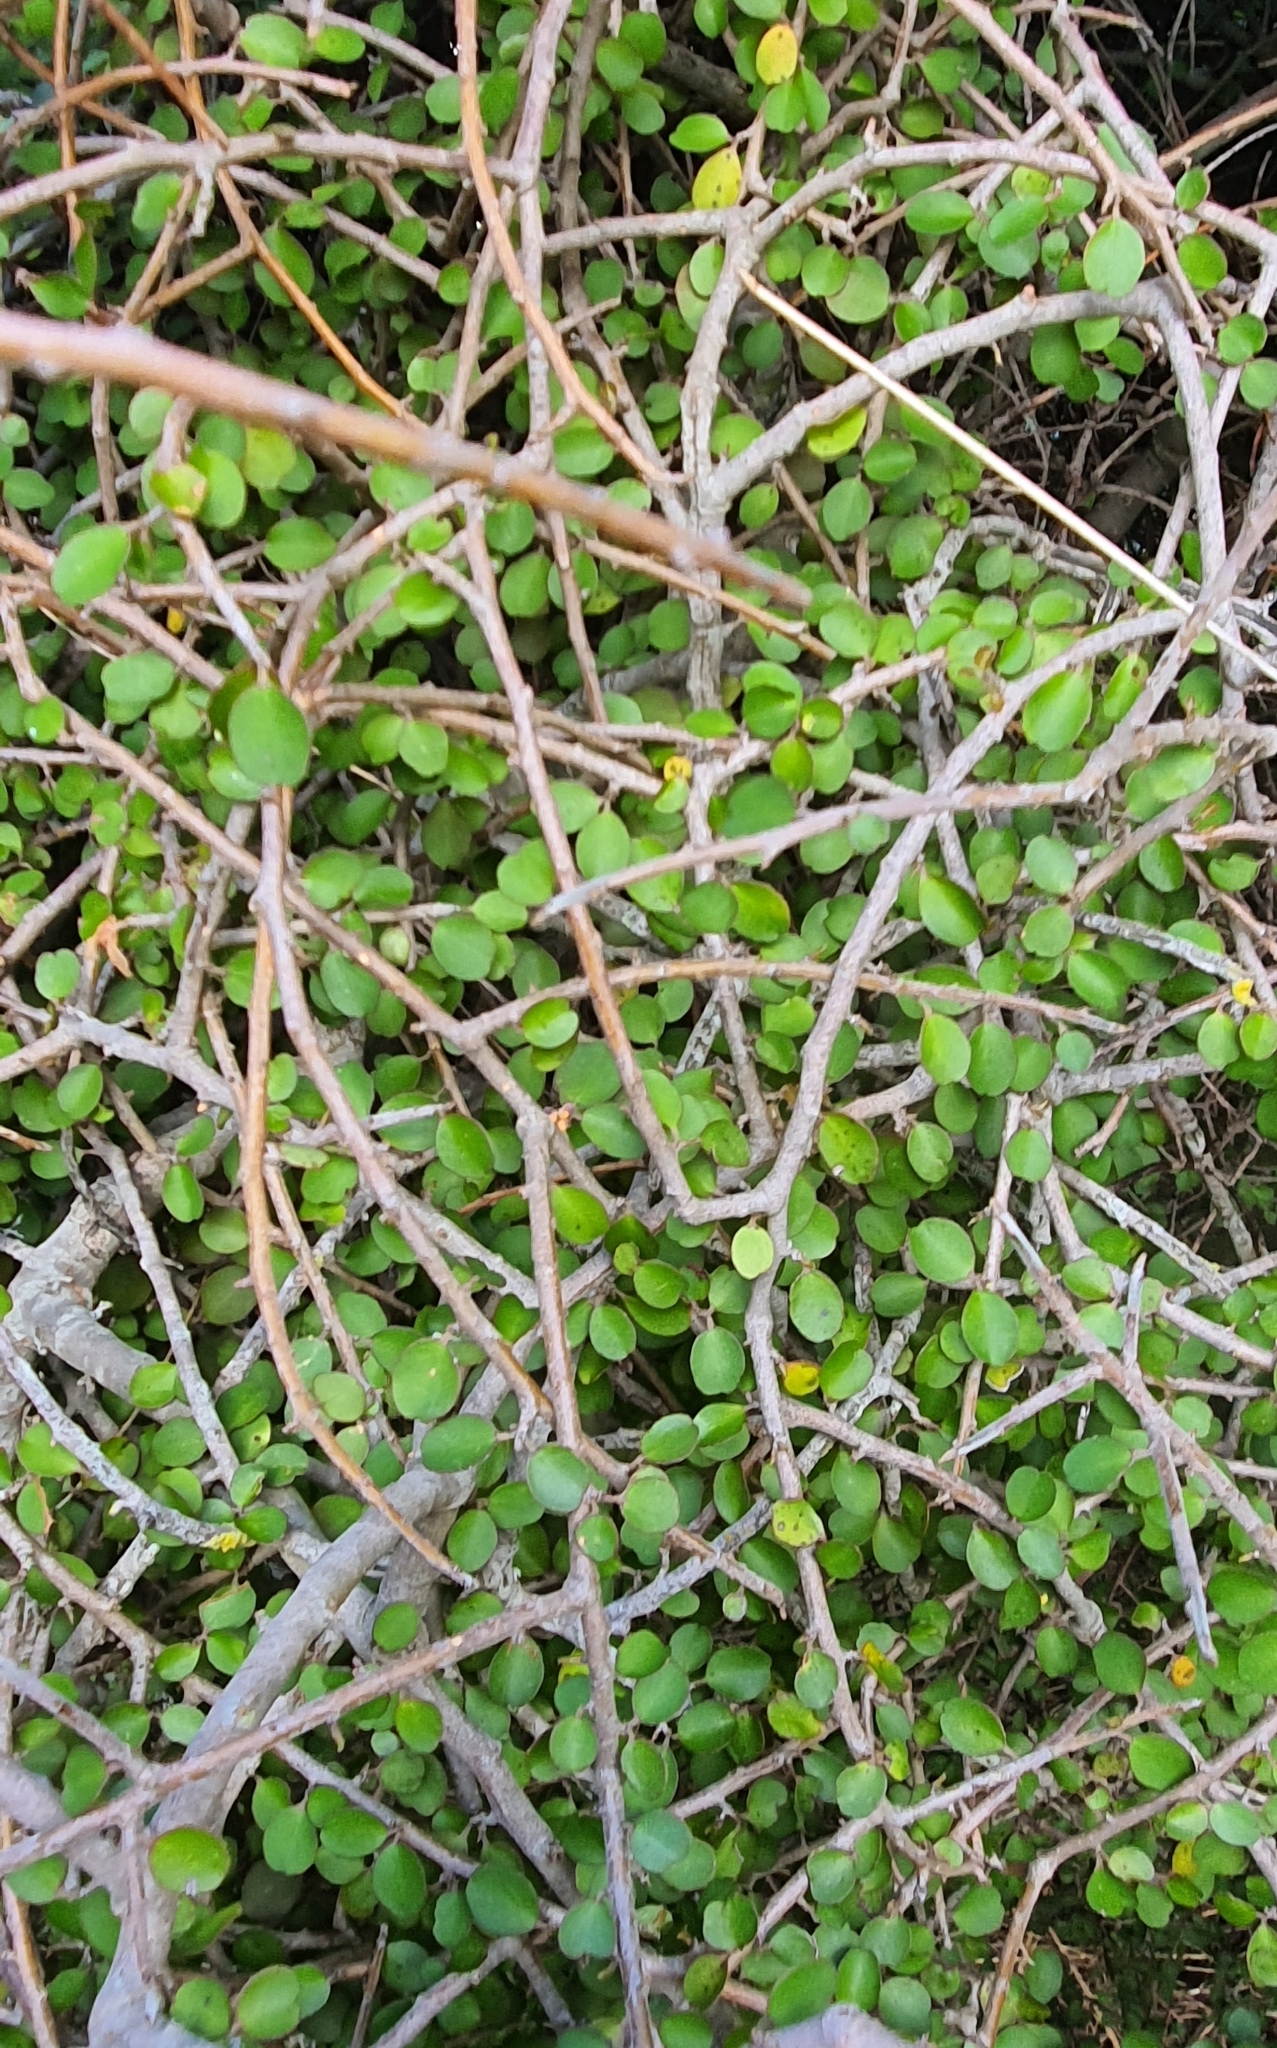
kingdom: Plantae
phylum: Tracheophyta
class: Magnoliopsida
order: Ericales
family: Primulaceae
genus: Myrsine
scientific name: Myrsine divaricata
